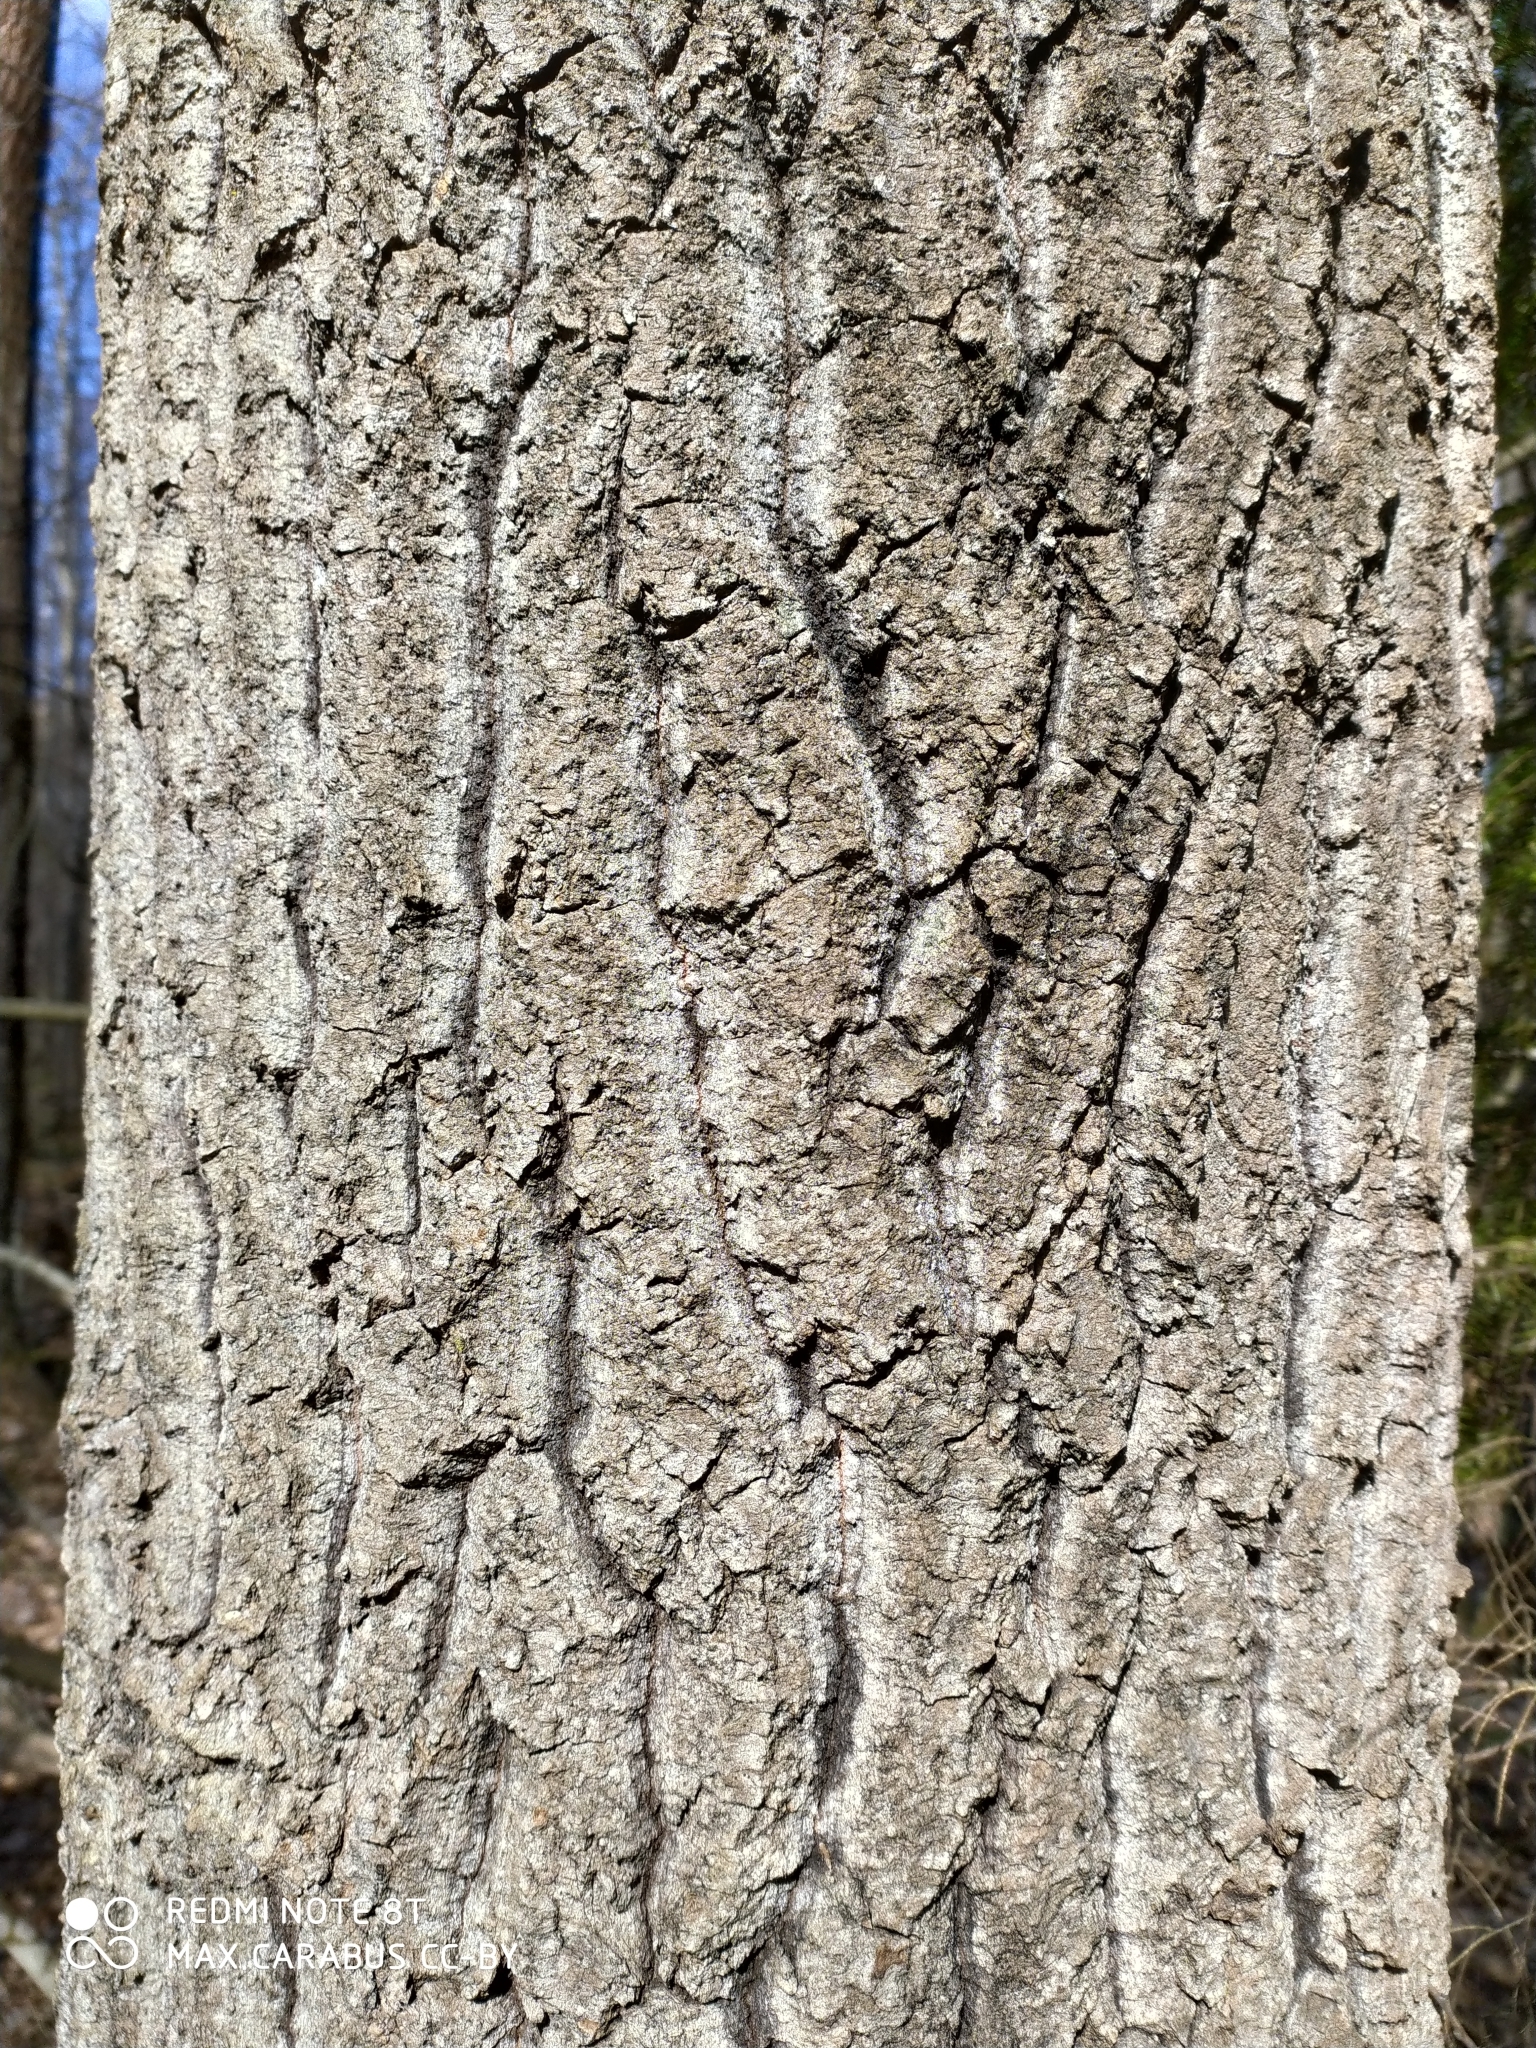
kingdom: Plantae
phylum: Tracheophyta
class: Magnoliopsida
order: Malpighiales
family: Salicaceae
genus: Populus
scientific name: Populus tremula
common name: European aspen
